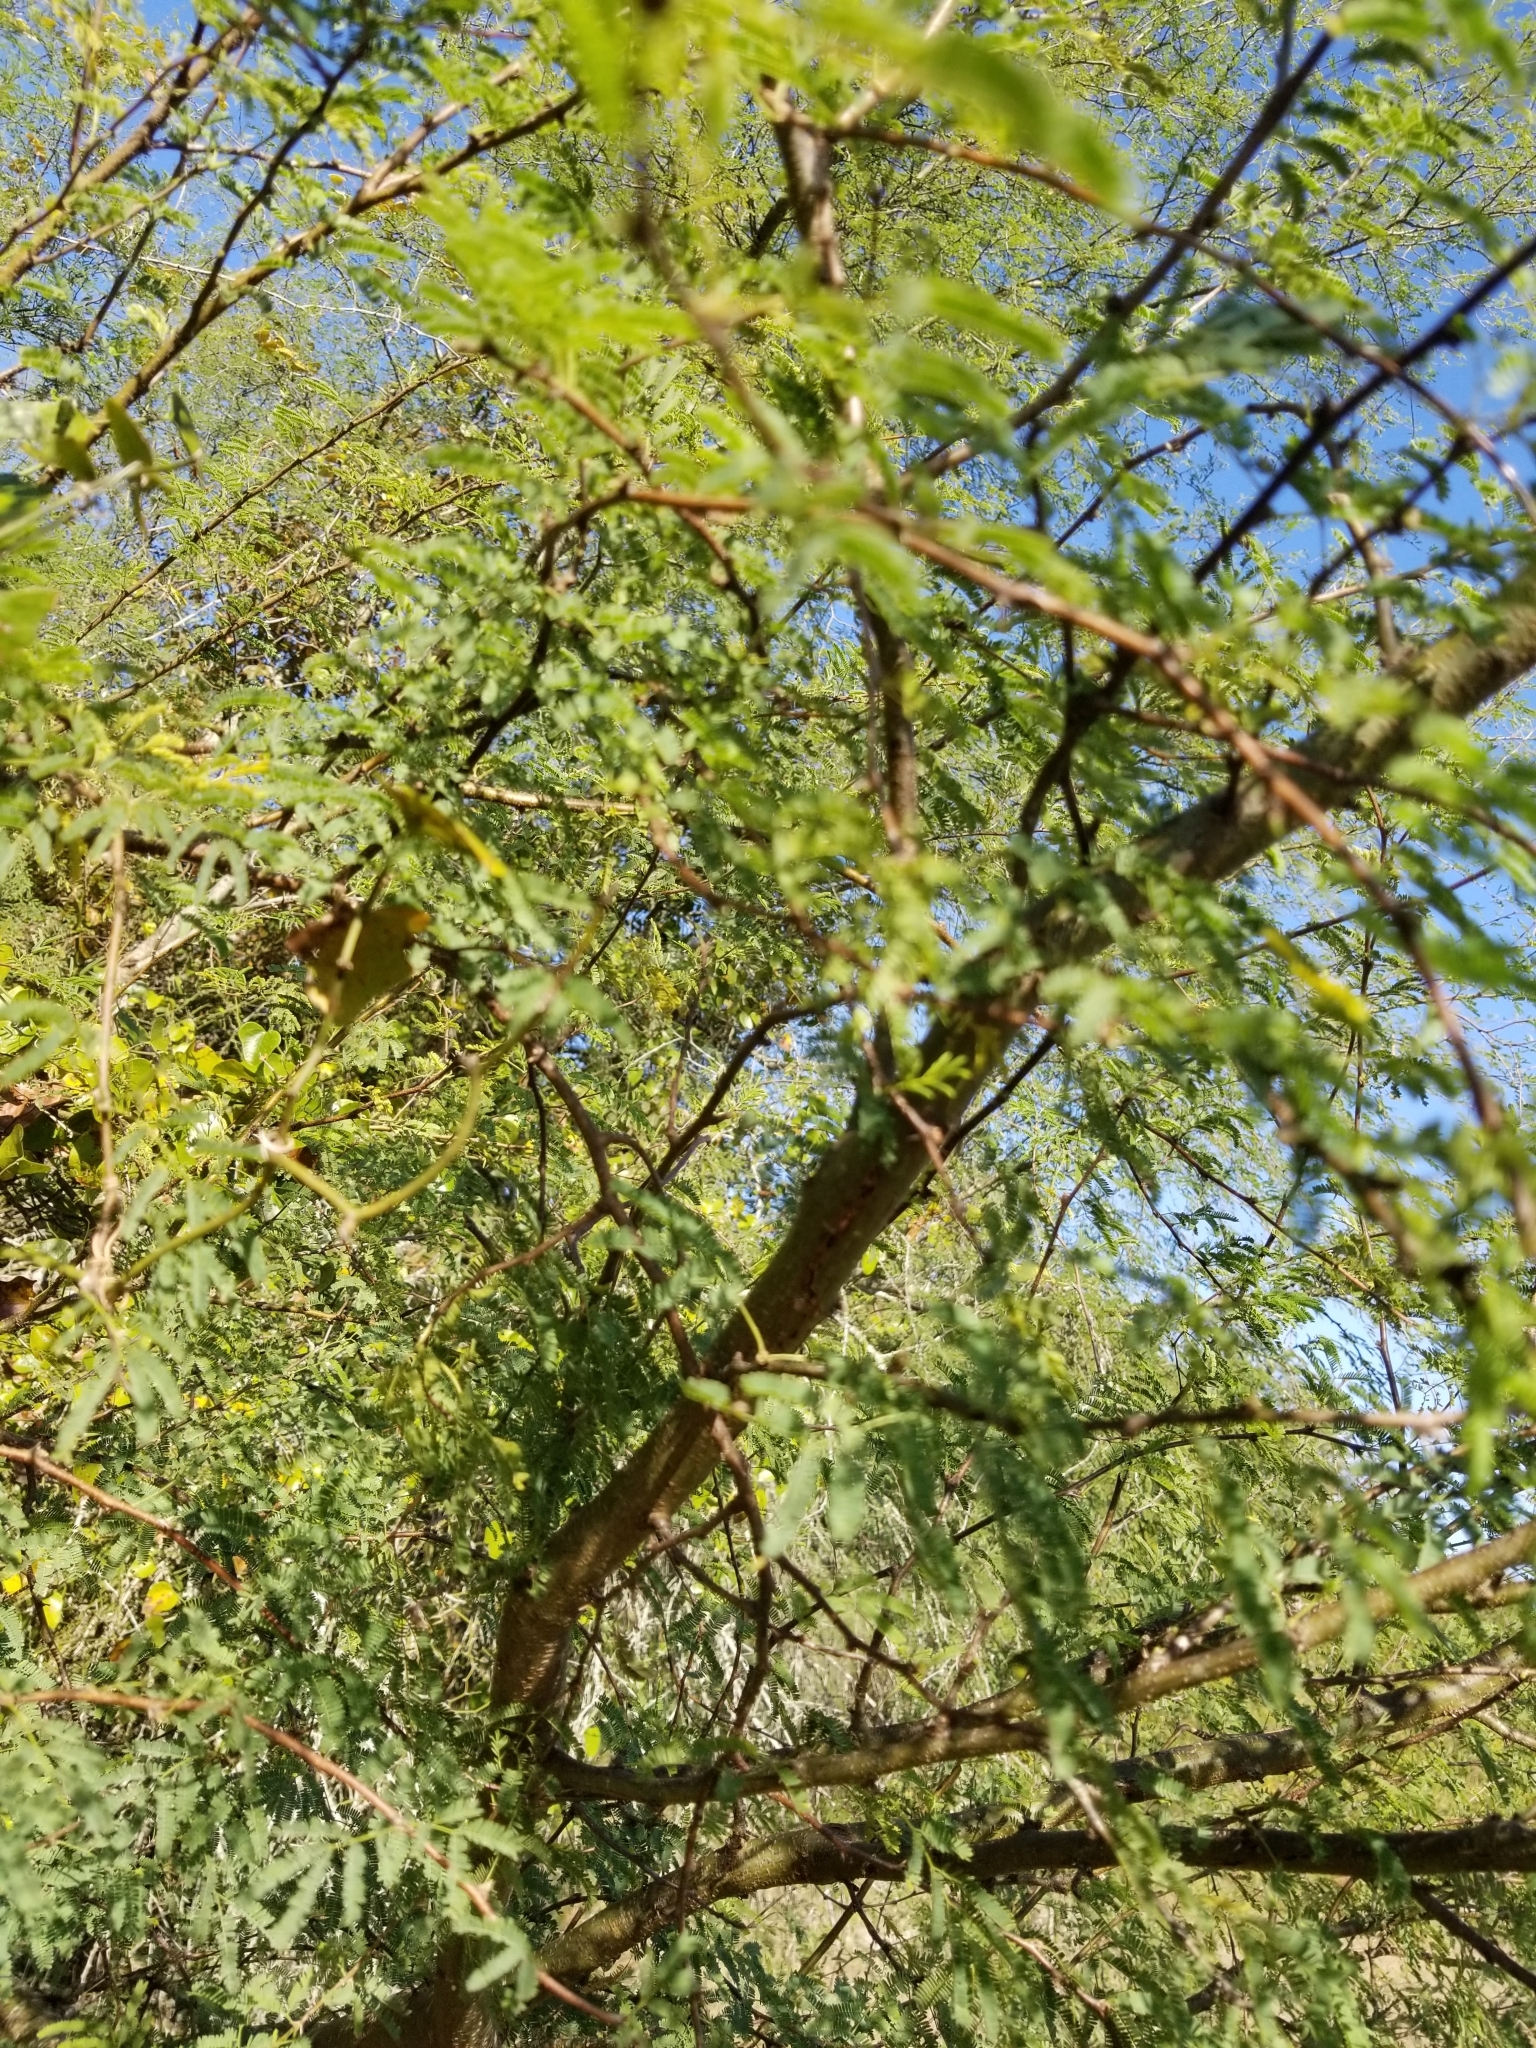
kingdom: Plantae
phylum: Tracheophyta
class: Magnoliopsida
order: Fabales
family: Fabaceae
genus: Vachellia
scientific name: Vachellia farnesiana
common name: Sweet acacia
